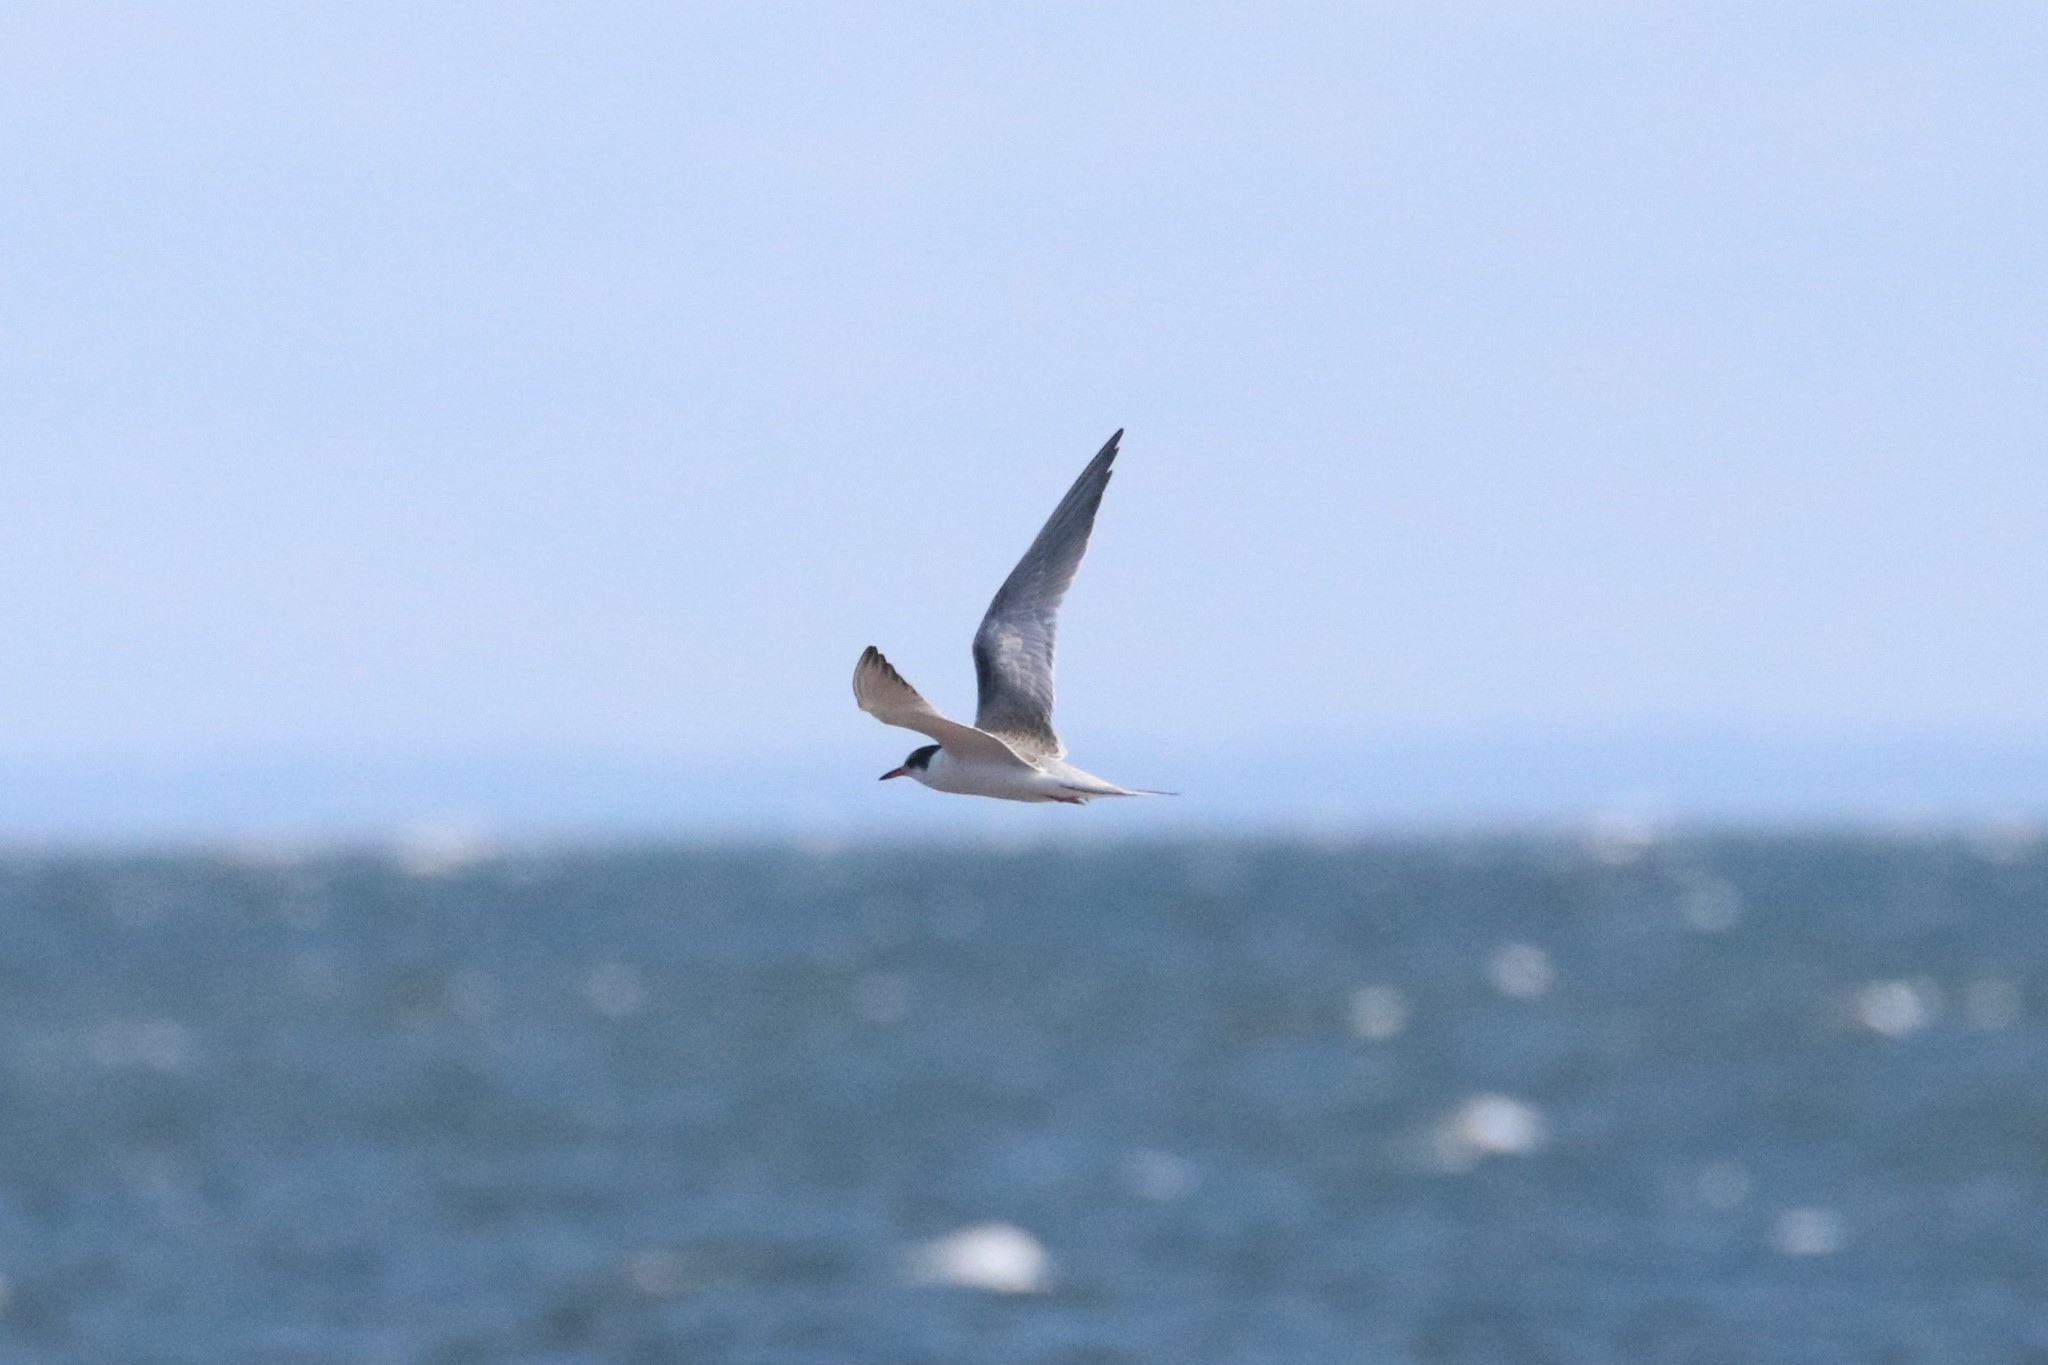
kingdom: Animalia
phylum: Chordata
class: Aves
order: Charadriiformes
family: Laridae
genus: Sterna
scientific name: Sterna hirundo
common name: Common tern
